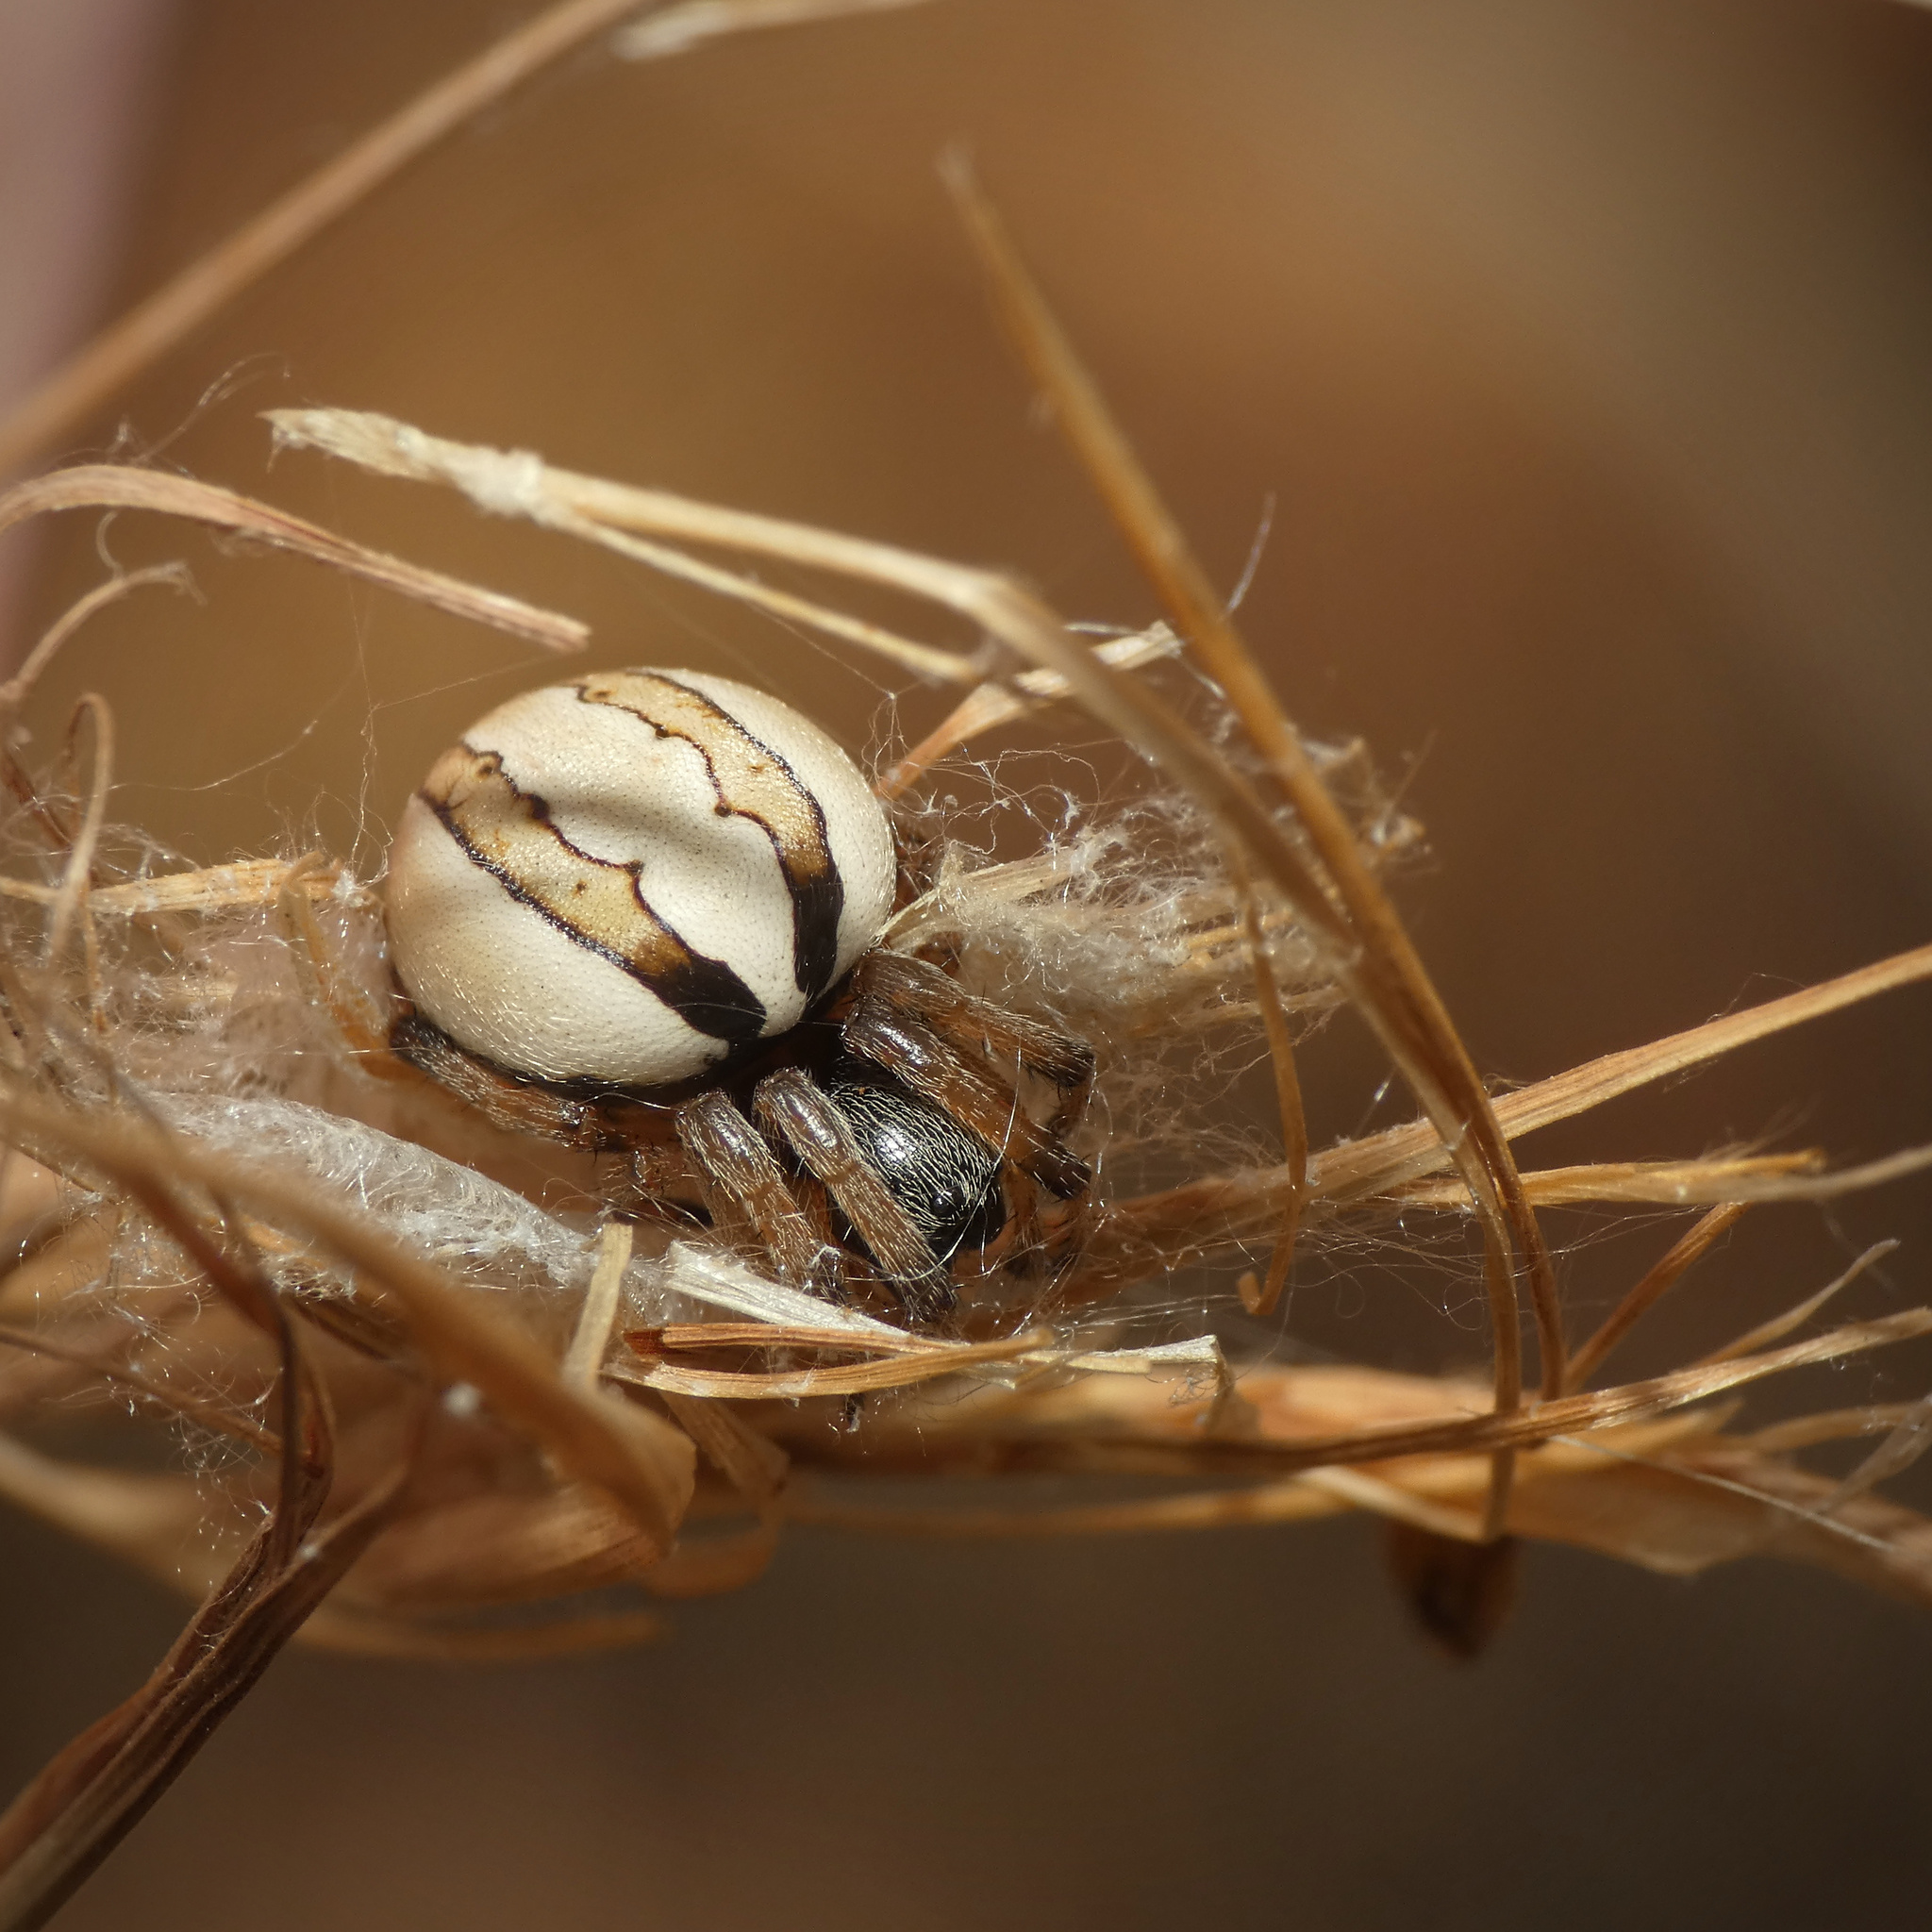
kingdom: Animalia
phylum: Arthropoda
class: Arachnida
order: Araneae
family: Araneidae
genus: Singa
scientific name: Singa albodorsata
